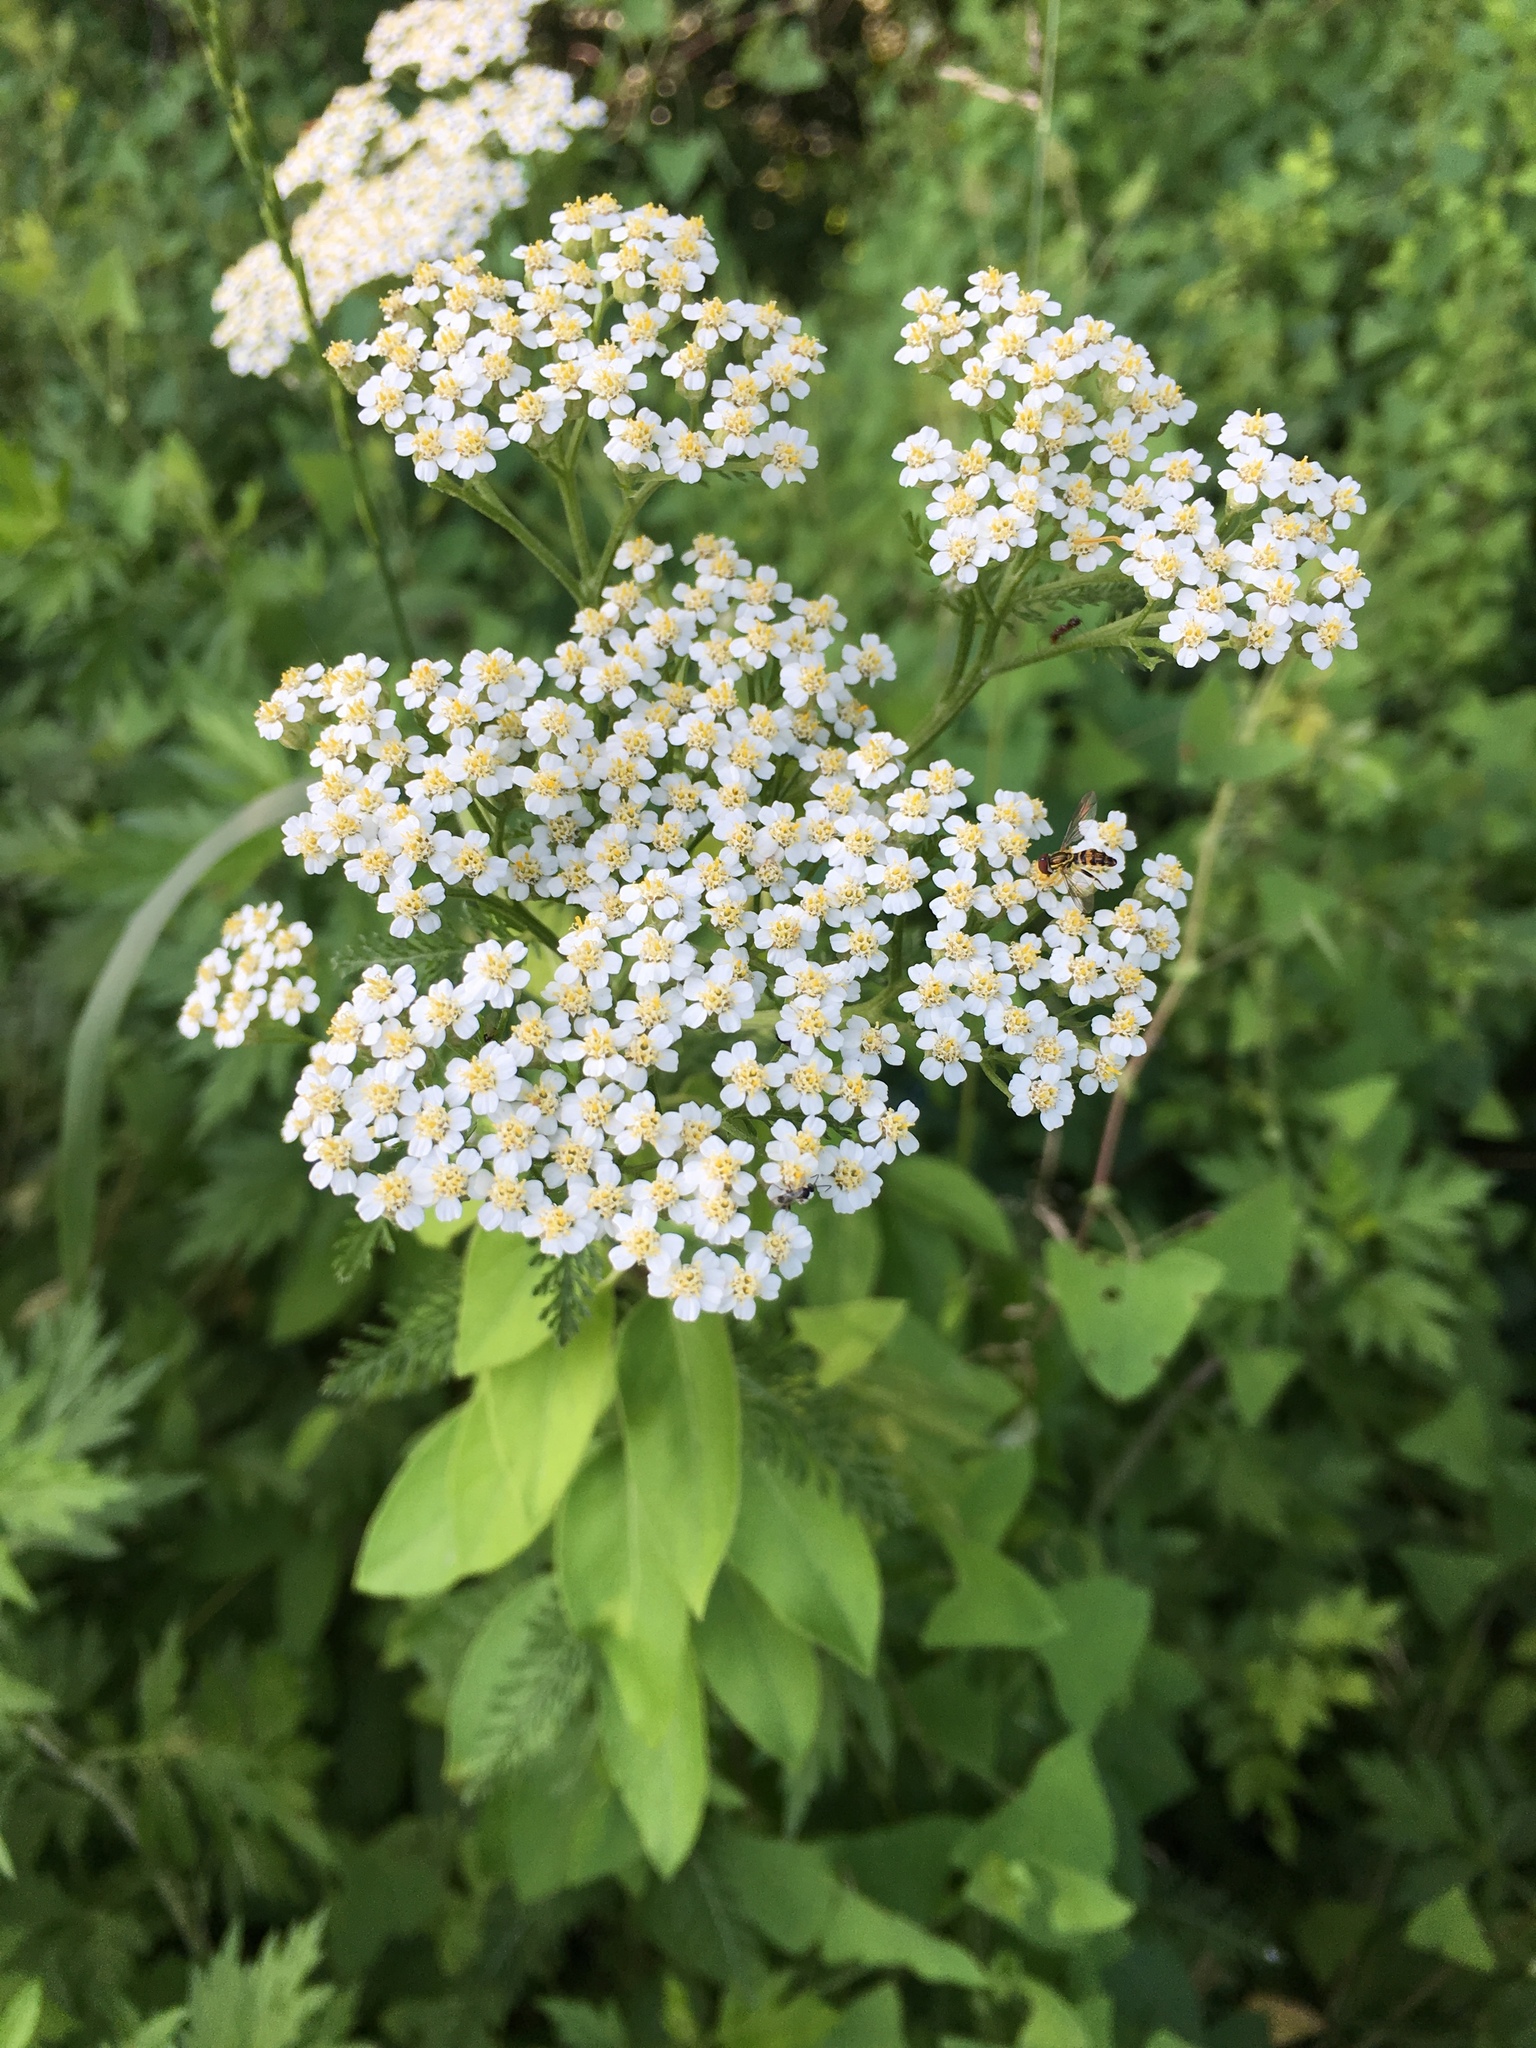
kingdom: Plantae
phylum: Tracheophyta
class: Magnoliopsida
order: Asterales
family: Asteraceae
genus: Achillea
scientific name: Achillea millefolium
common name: Yarrow
